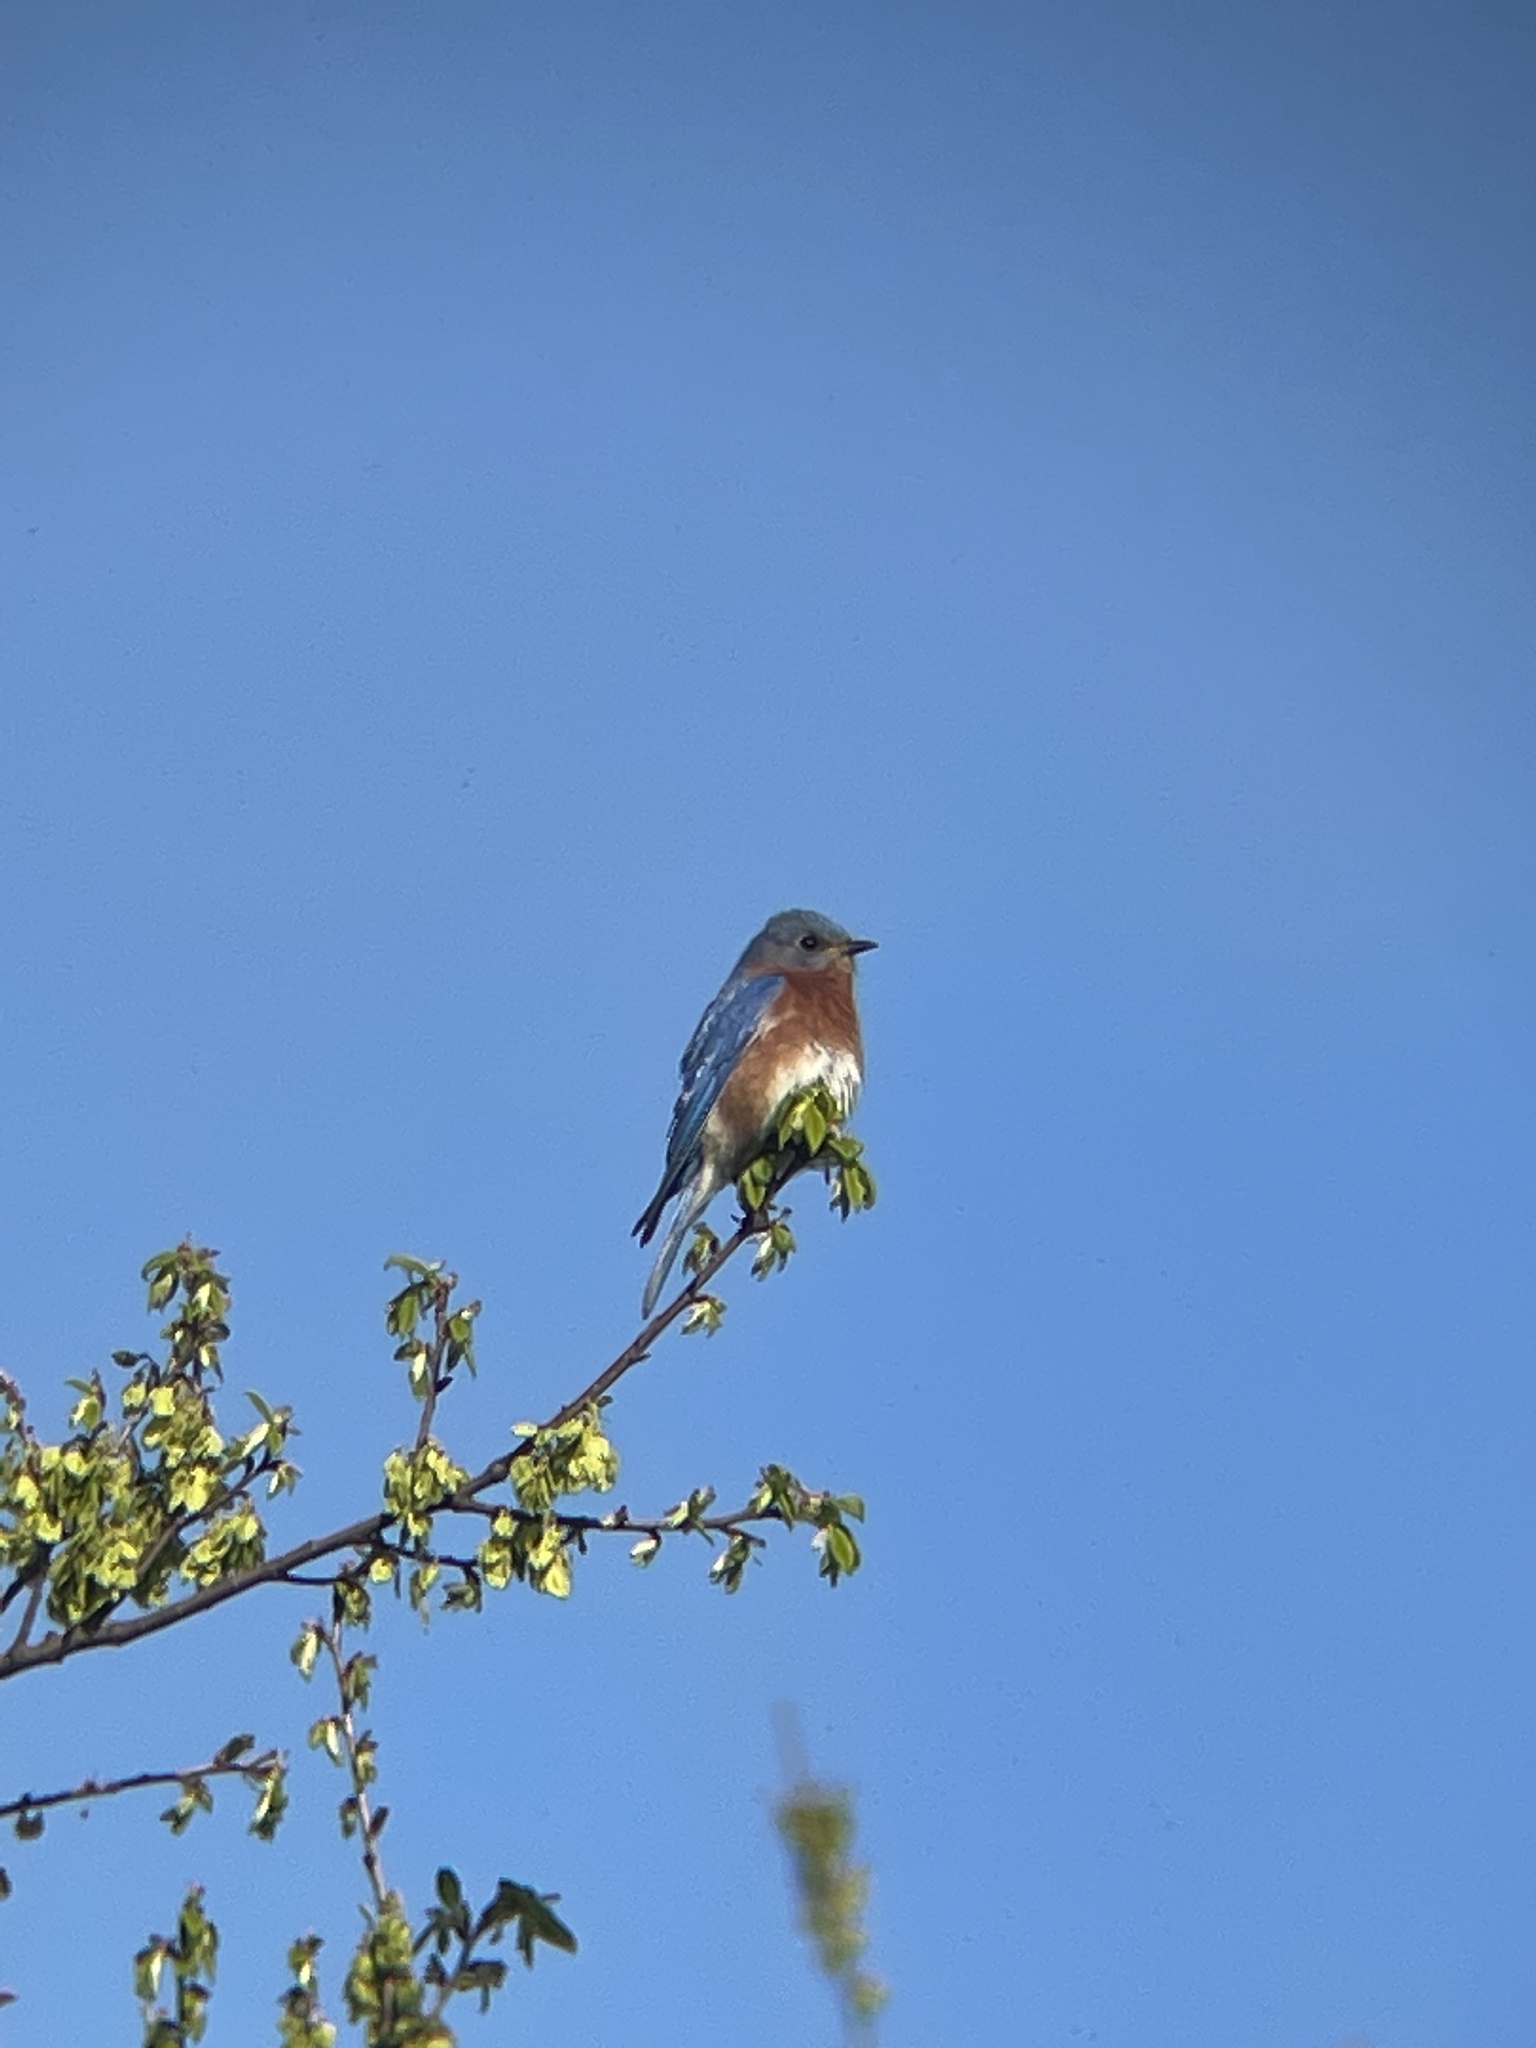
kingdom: Animalia
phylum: Chordata
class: Aves
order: Passeriformes
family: Turdidae
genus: Sialia
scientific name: Sialia sialis
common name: Eastern bluebird
